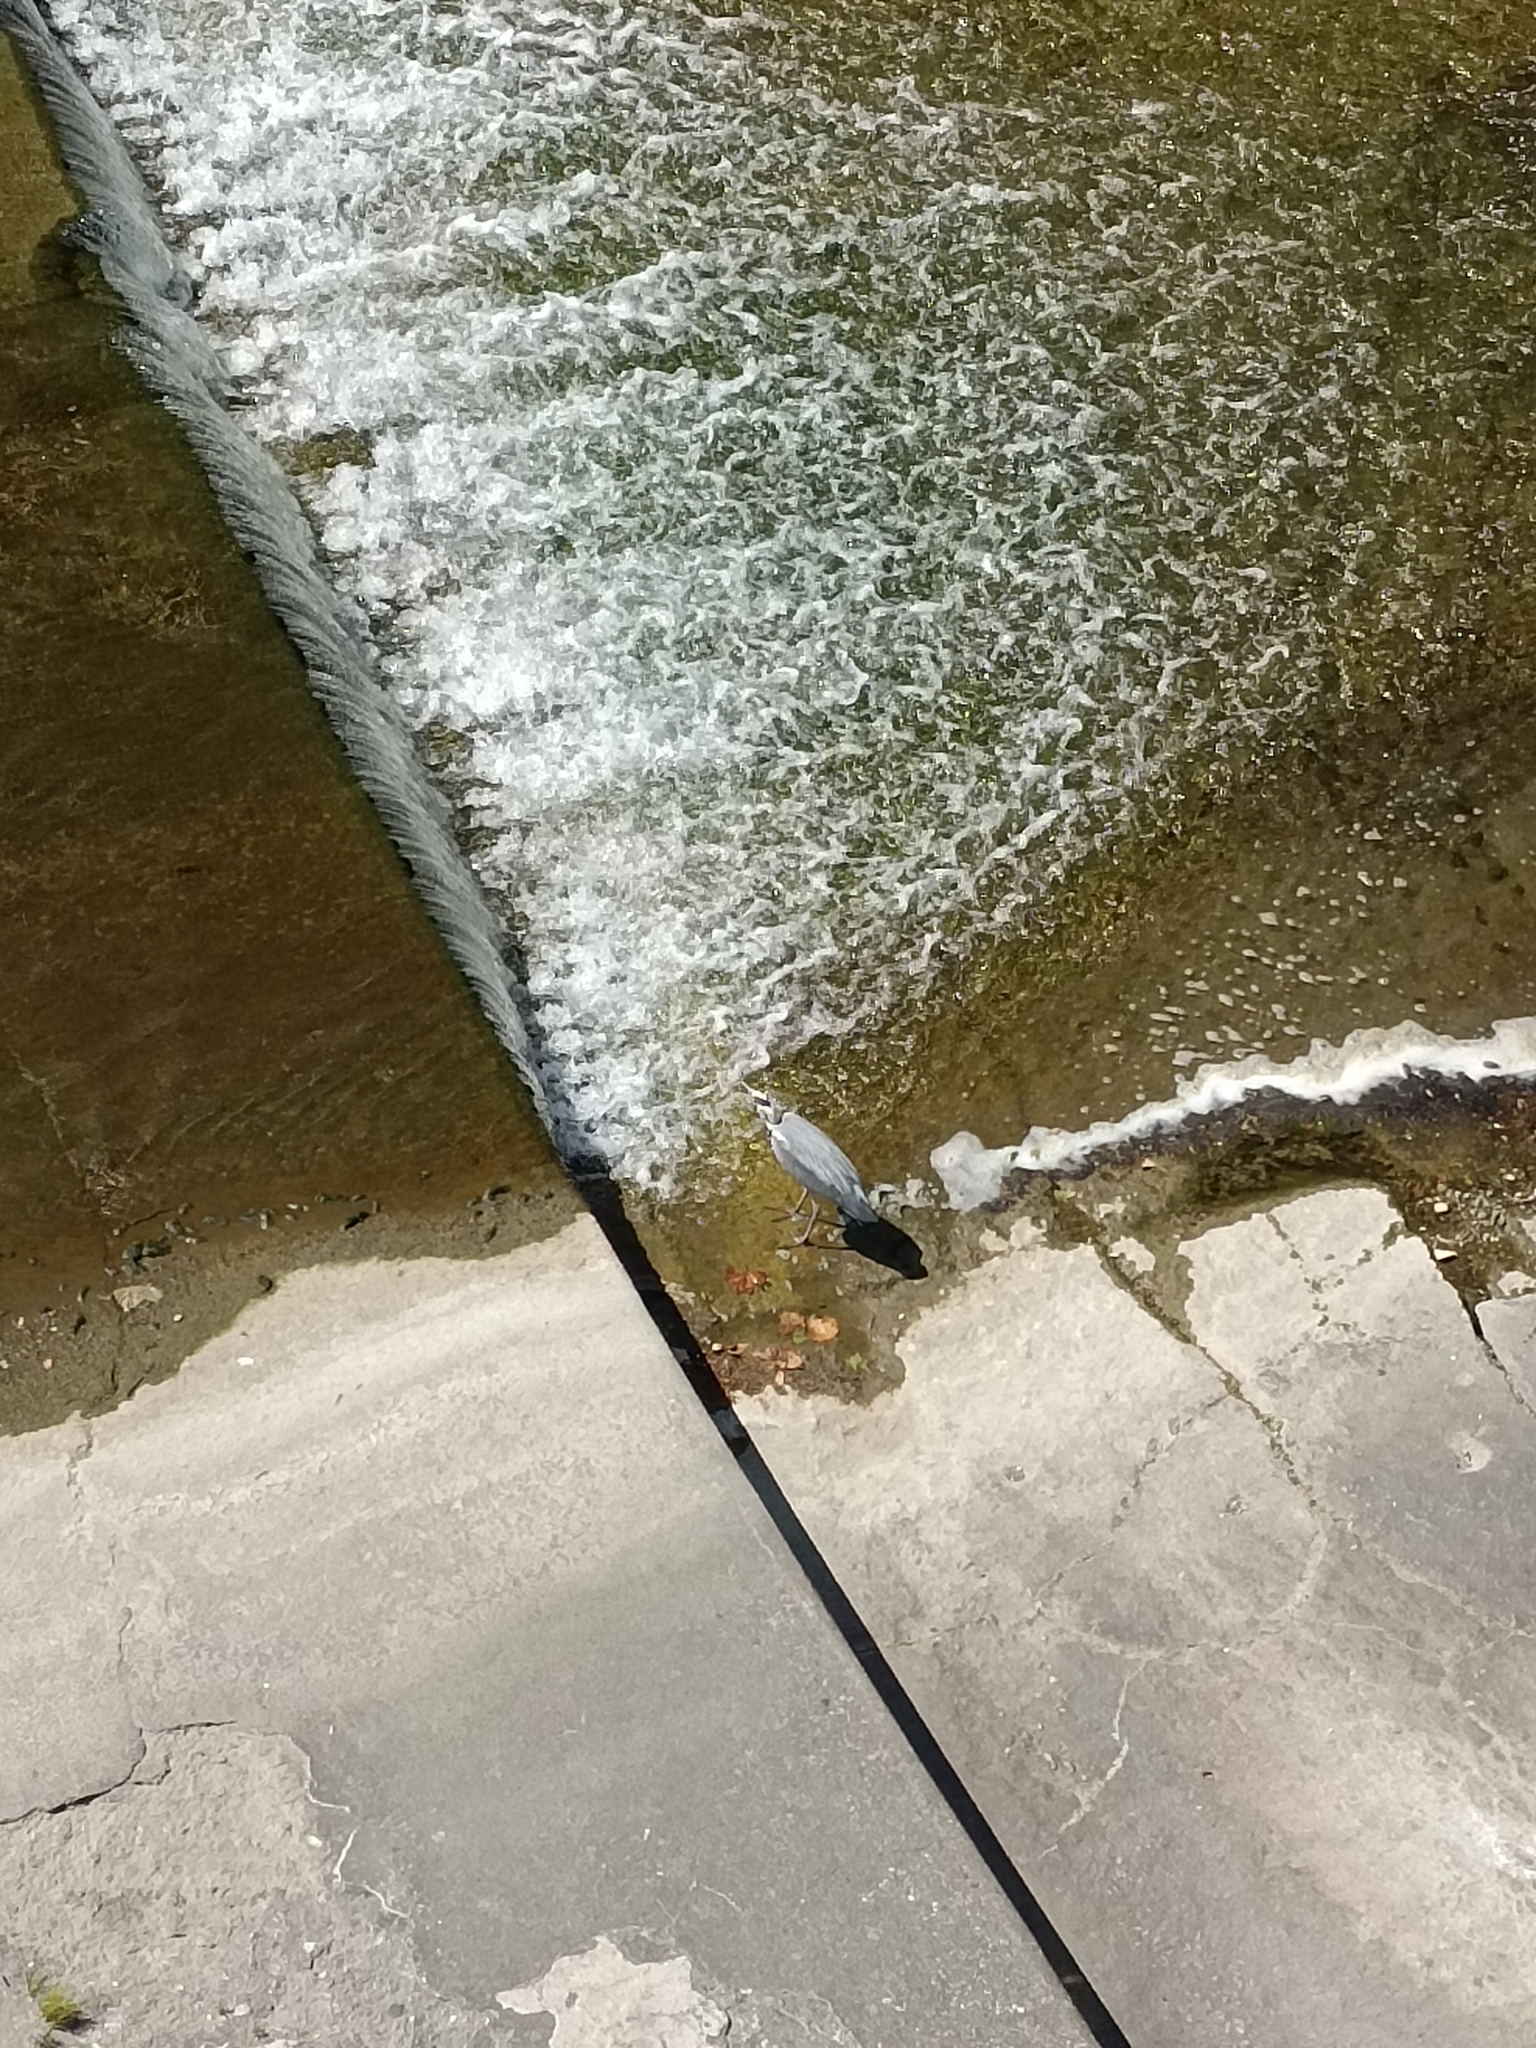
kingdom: Animalia
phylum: Chordata
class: Aves
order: Pelecaniformes
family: Ardeidae
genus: Ardea
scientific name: Ardea cinerea
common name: Grey heron
